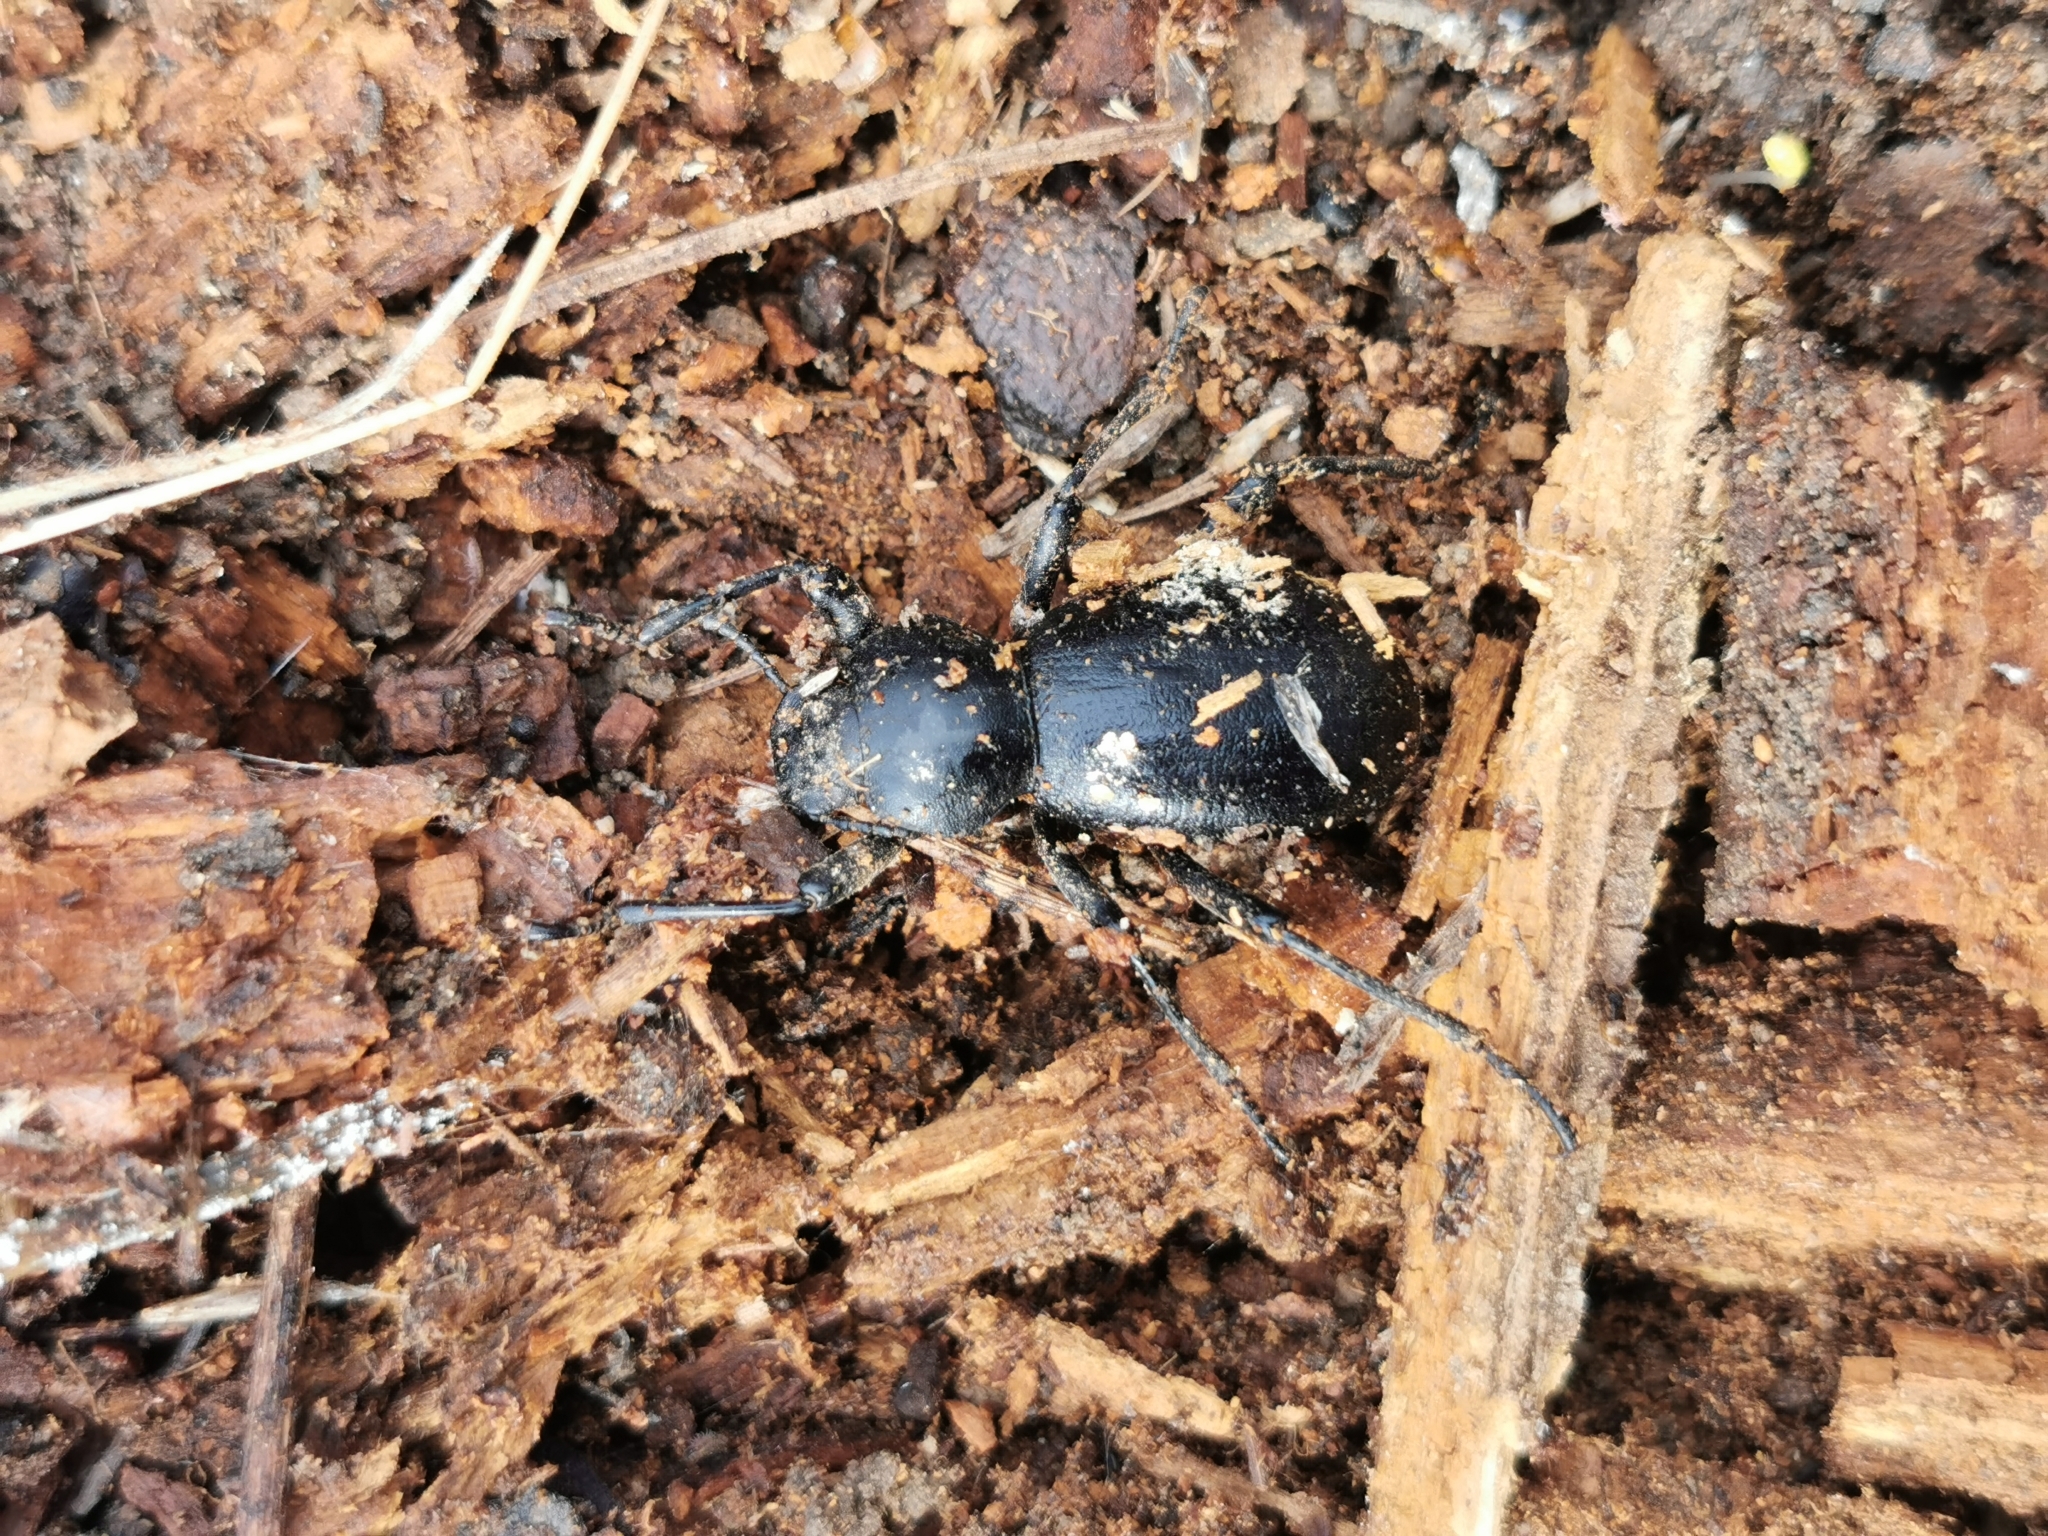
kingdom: Animalia
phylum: Arthropoda
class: Insecta
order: Coleoptera
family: Tenebrionidae
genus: Coelocnemis
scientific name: Coelocnemis dilaticollis
